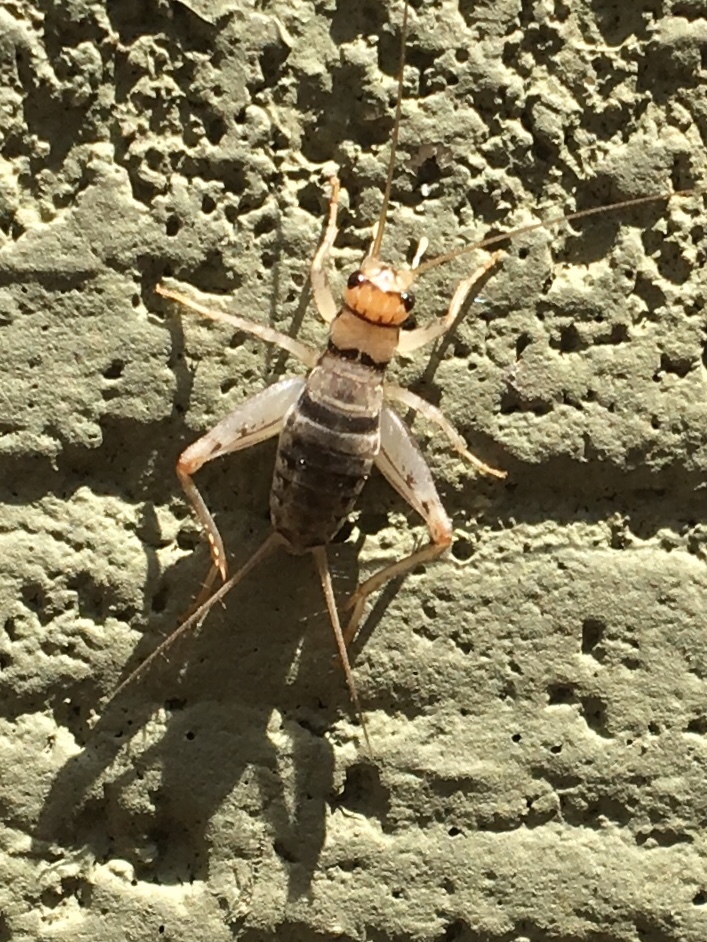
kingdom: Animalia
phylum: Arthropoda
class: Insecta
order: Orthoptera
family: Gryllidae
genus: Gryllodes
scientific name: Gryllodes sigillatus
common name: Tropical house cricket
